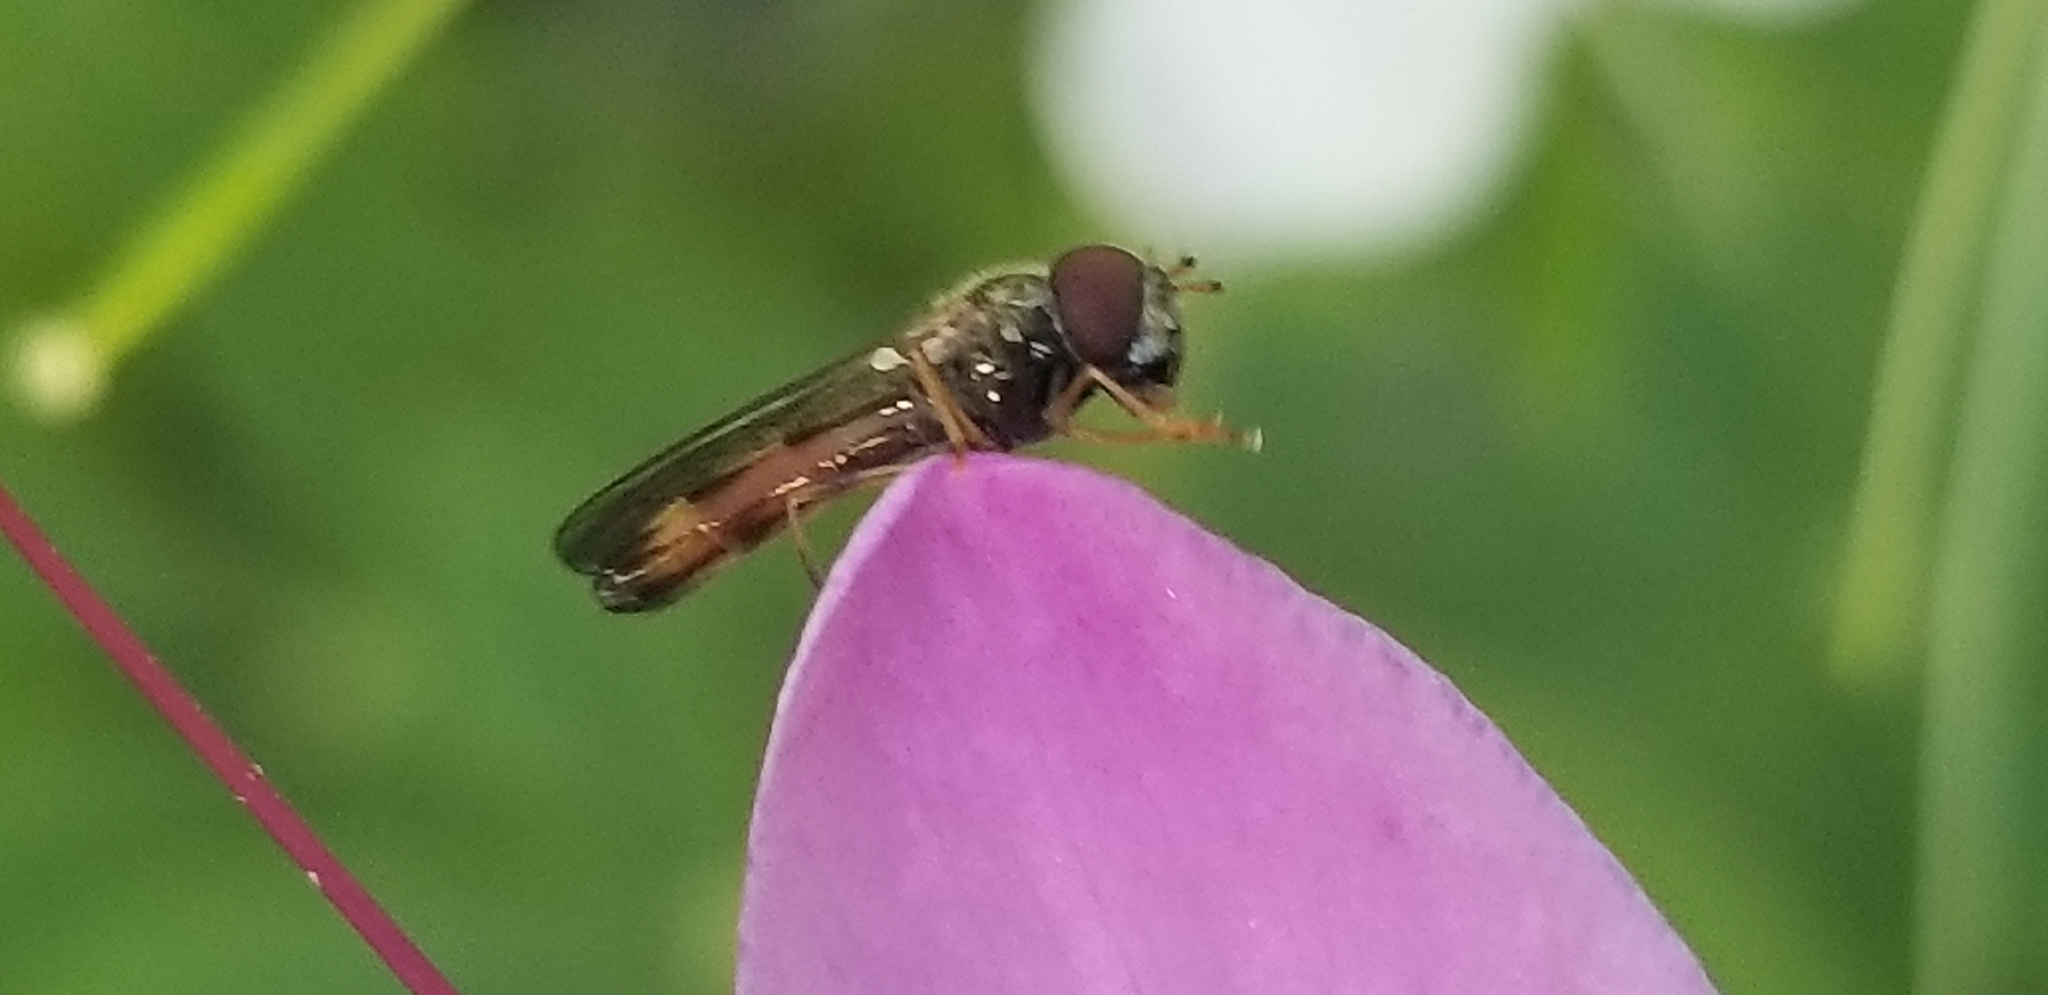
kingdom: Animalia
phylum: Arthropoda
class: Insecta
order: Diptera
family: Syrphidae
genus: Melanostoma
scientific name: Melanostoma mellina
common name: Hover fly
